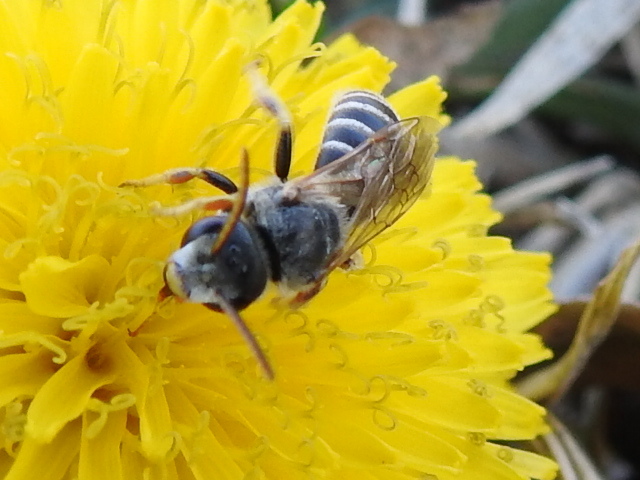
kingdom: Animalia
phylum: Arthropoda
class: Insecta
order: Hymenoptera
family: Halictidae
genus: Halictus
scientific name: Halictus ligatus
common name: Ligated furrow bee
